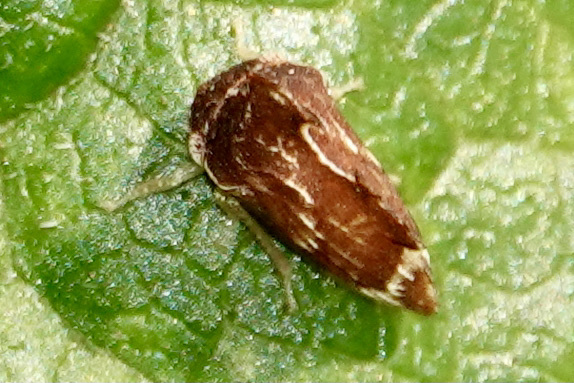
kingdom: Animalia
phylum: Arthropoda
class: Insecta
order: Hemiptera
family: Membracidae
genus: Entylia
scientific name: Entylia carinata
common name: Keeled treehopper
